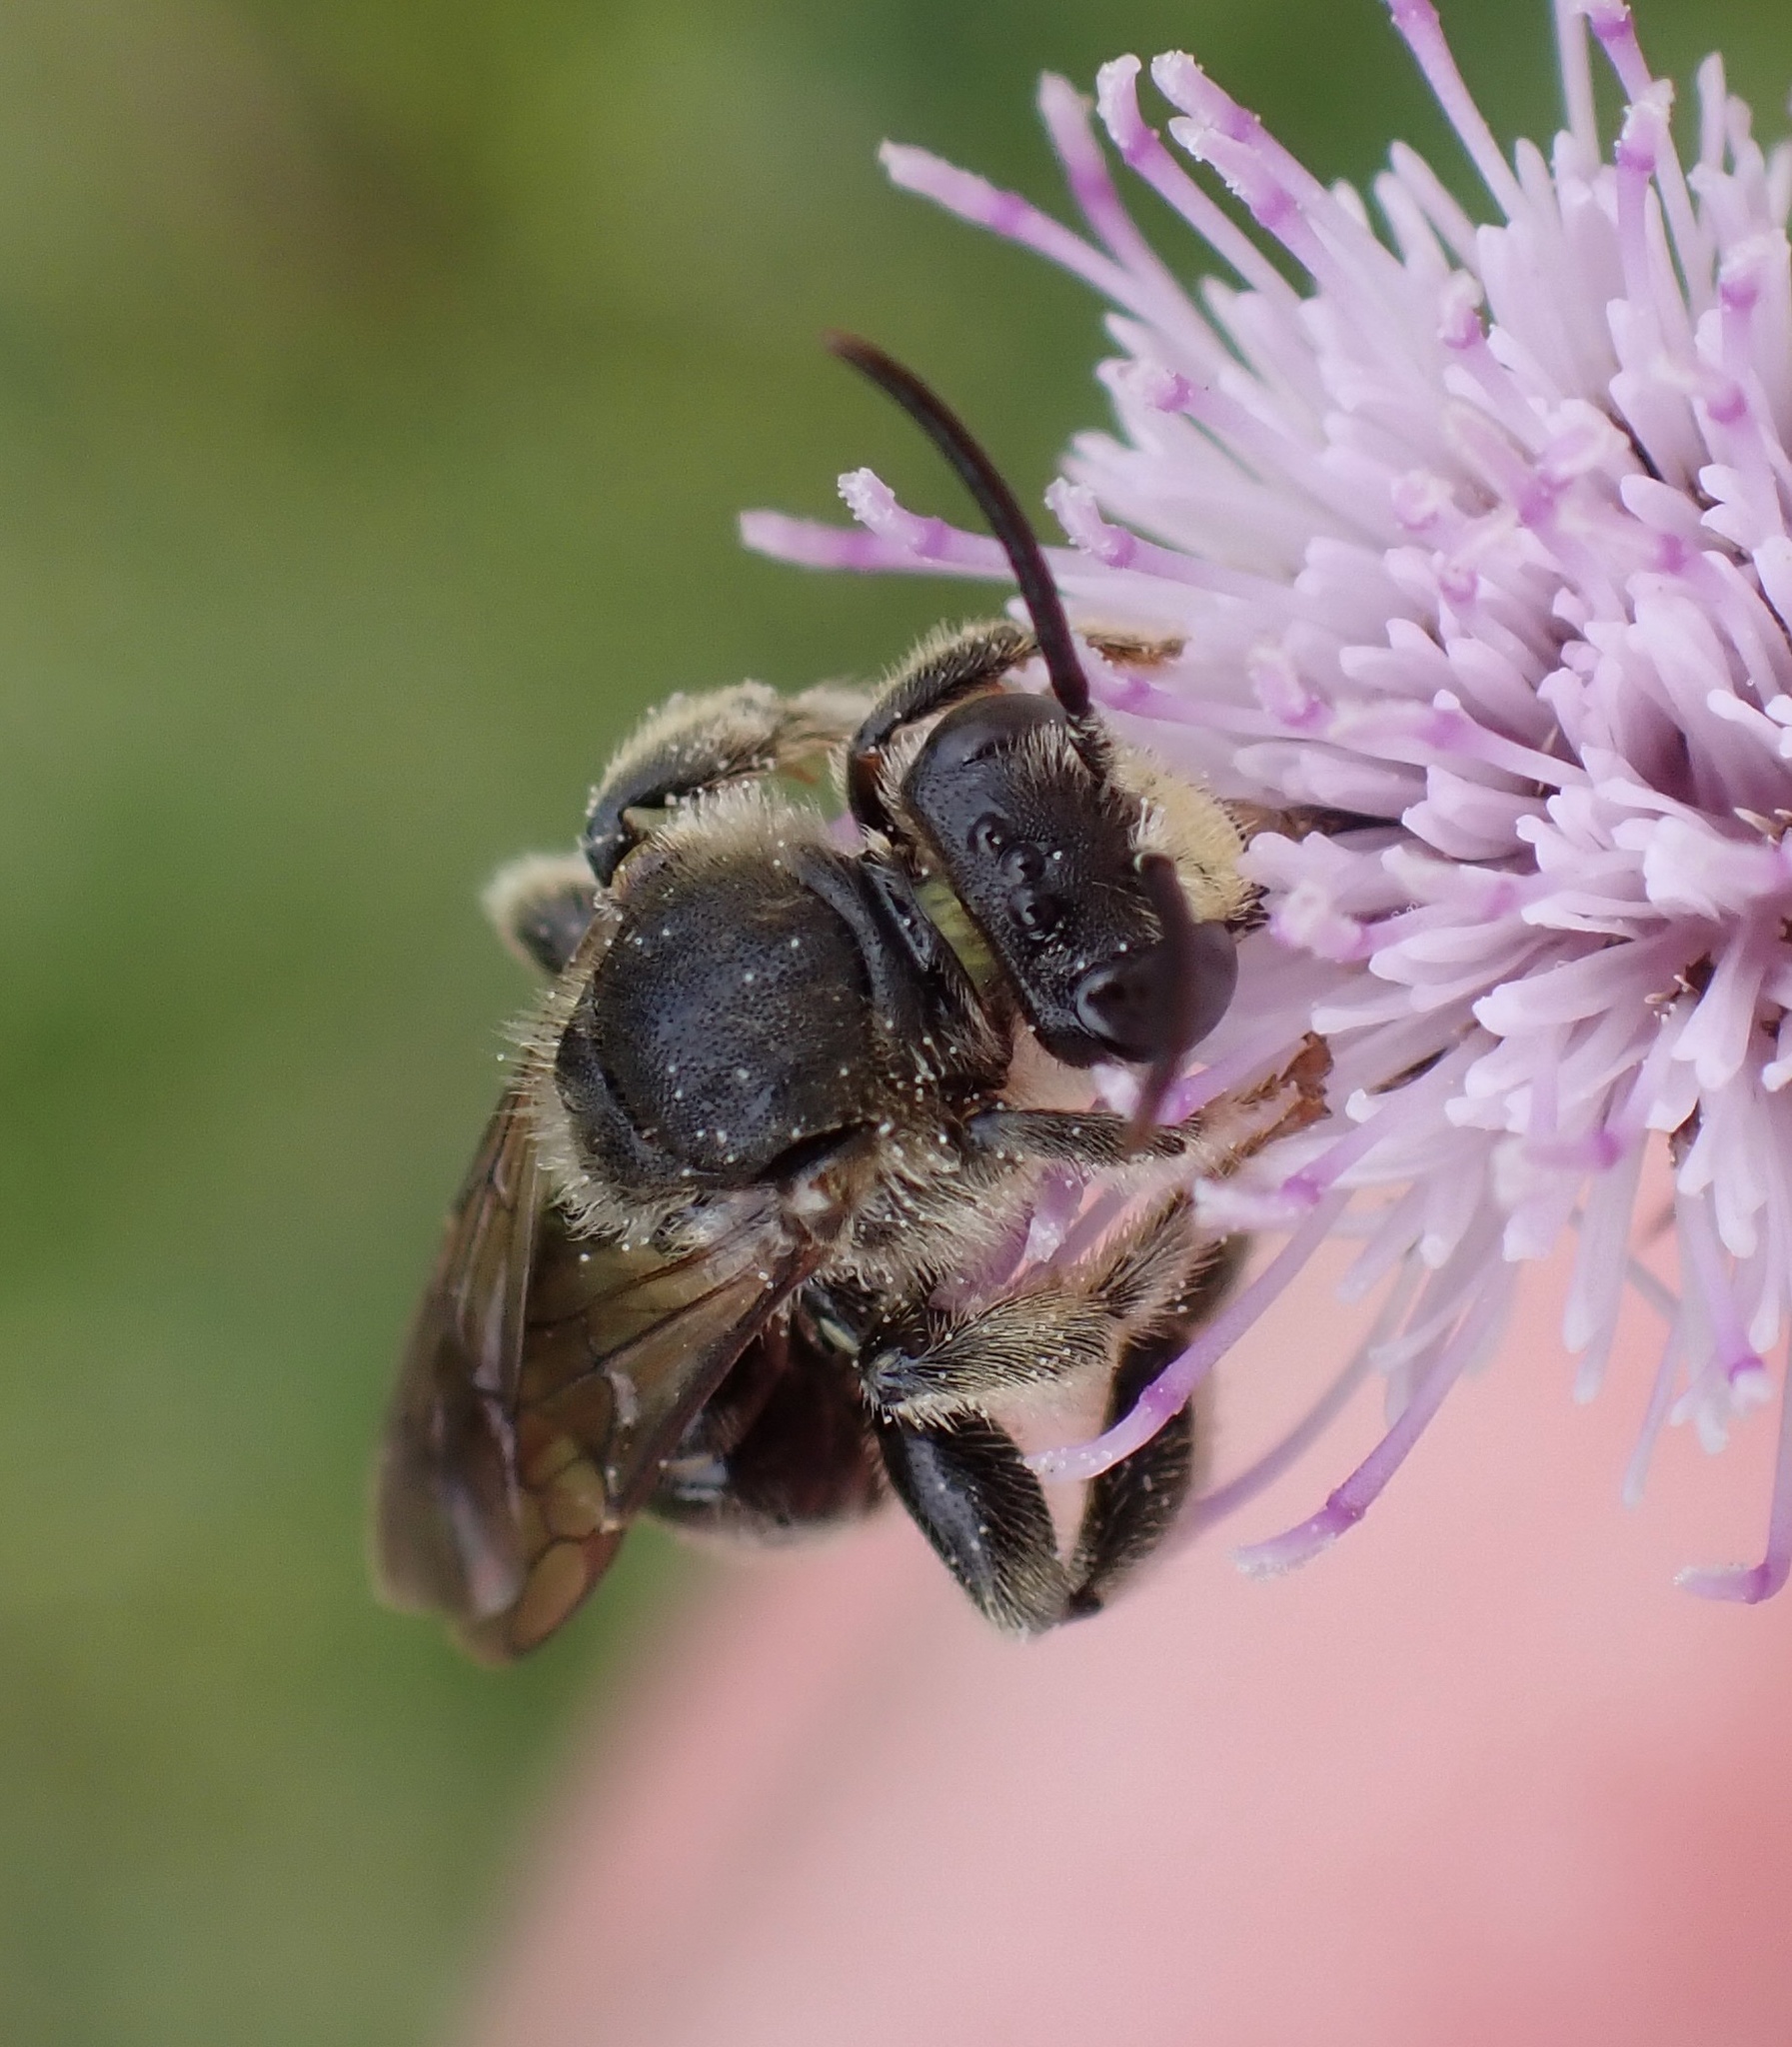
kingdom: Animalia
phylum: Arthropoda
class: Insecta
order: Hymenoptera
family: Melittidae
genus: Macropis
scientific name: Macropis europaea
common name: Yellow loosestrife bee
